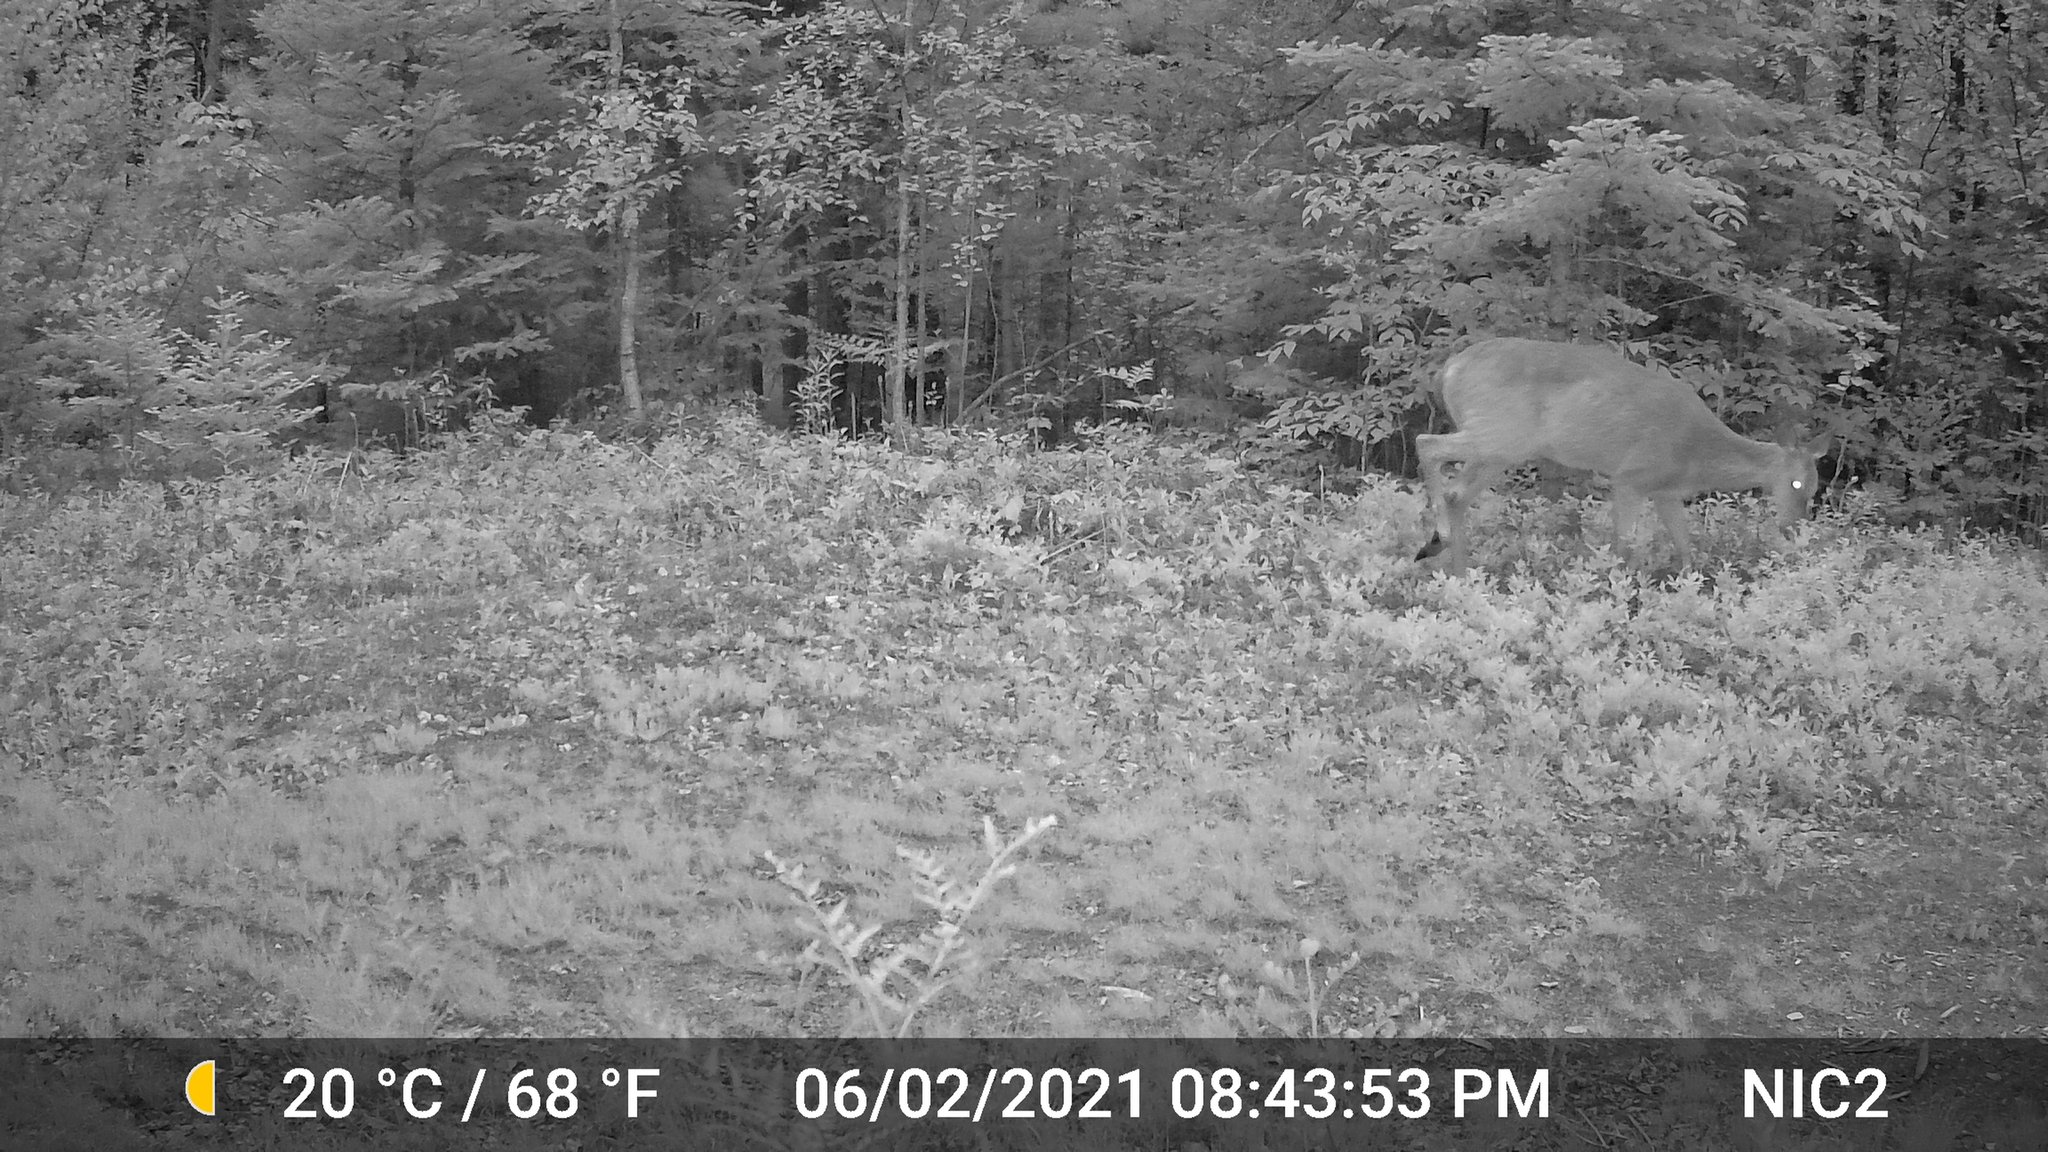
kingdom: Animalia
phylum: Chordata
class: Mammalia
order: Artiodactyla
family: Cervidae
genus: Odocoileus
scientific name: Odocoileus virginianus
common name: White-tailed deer
